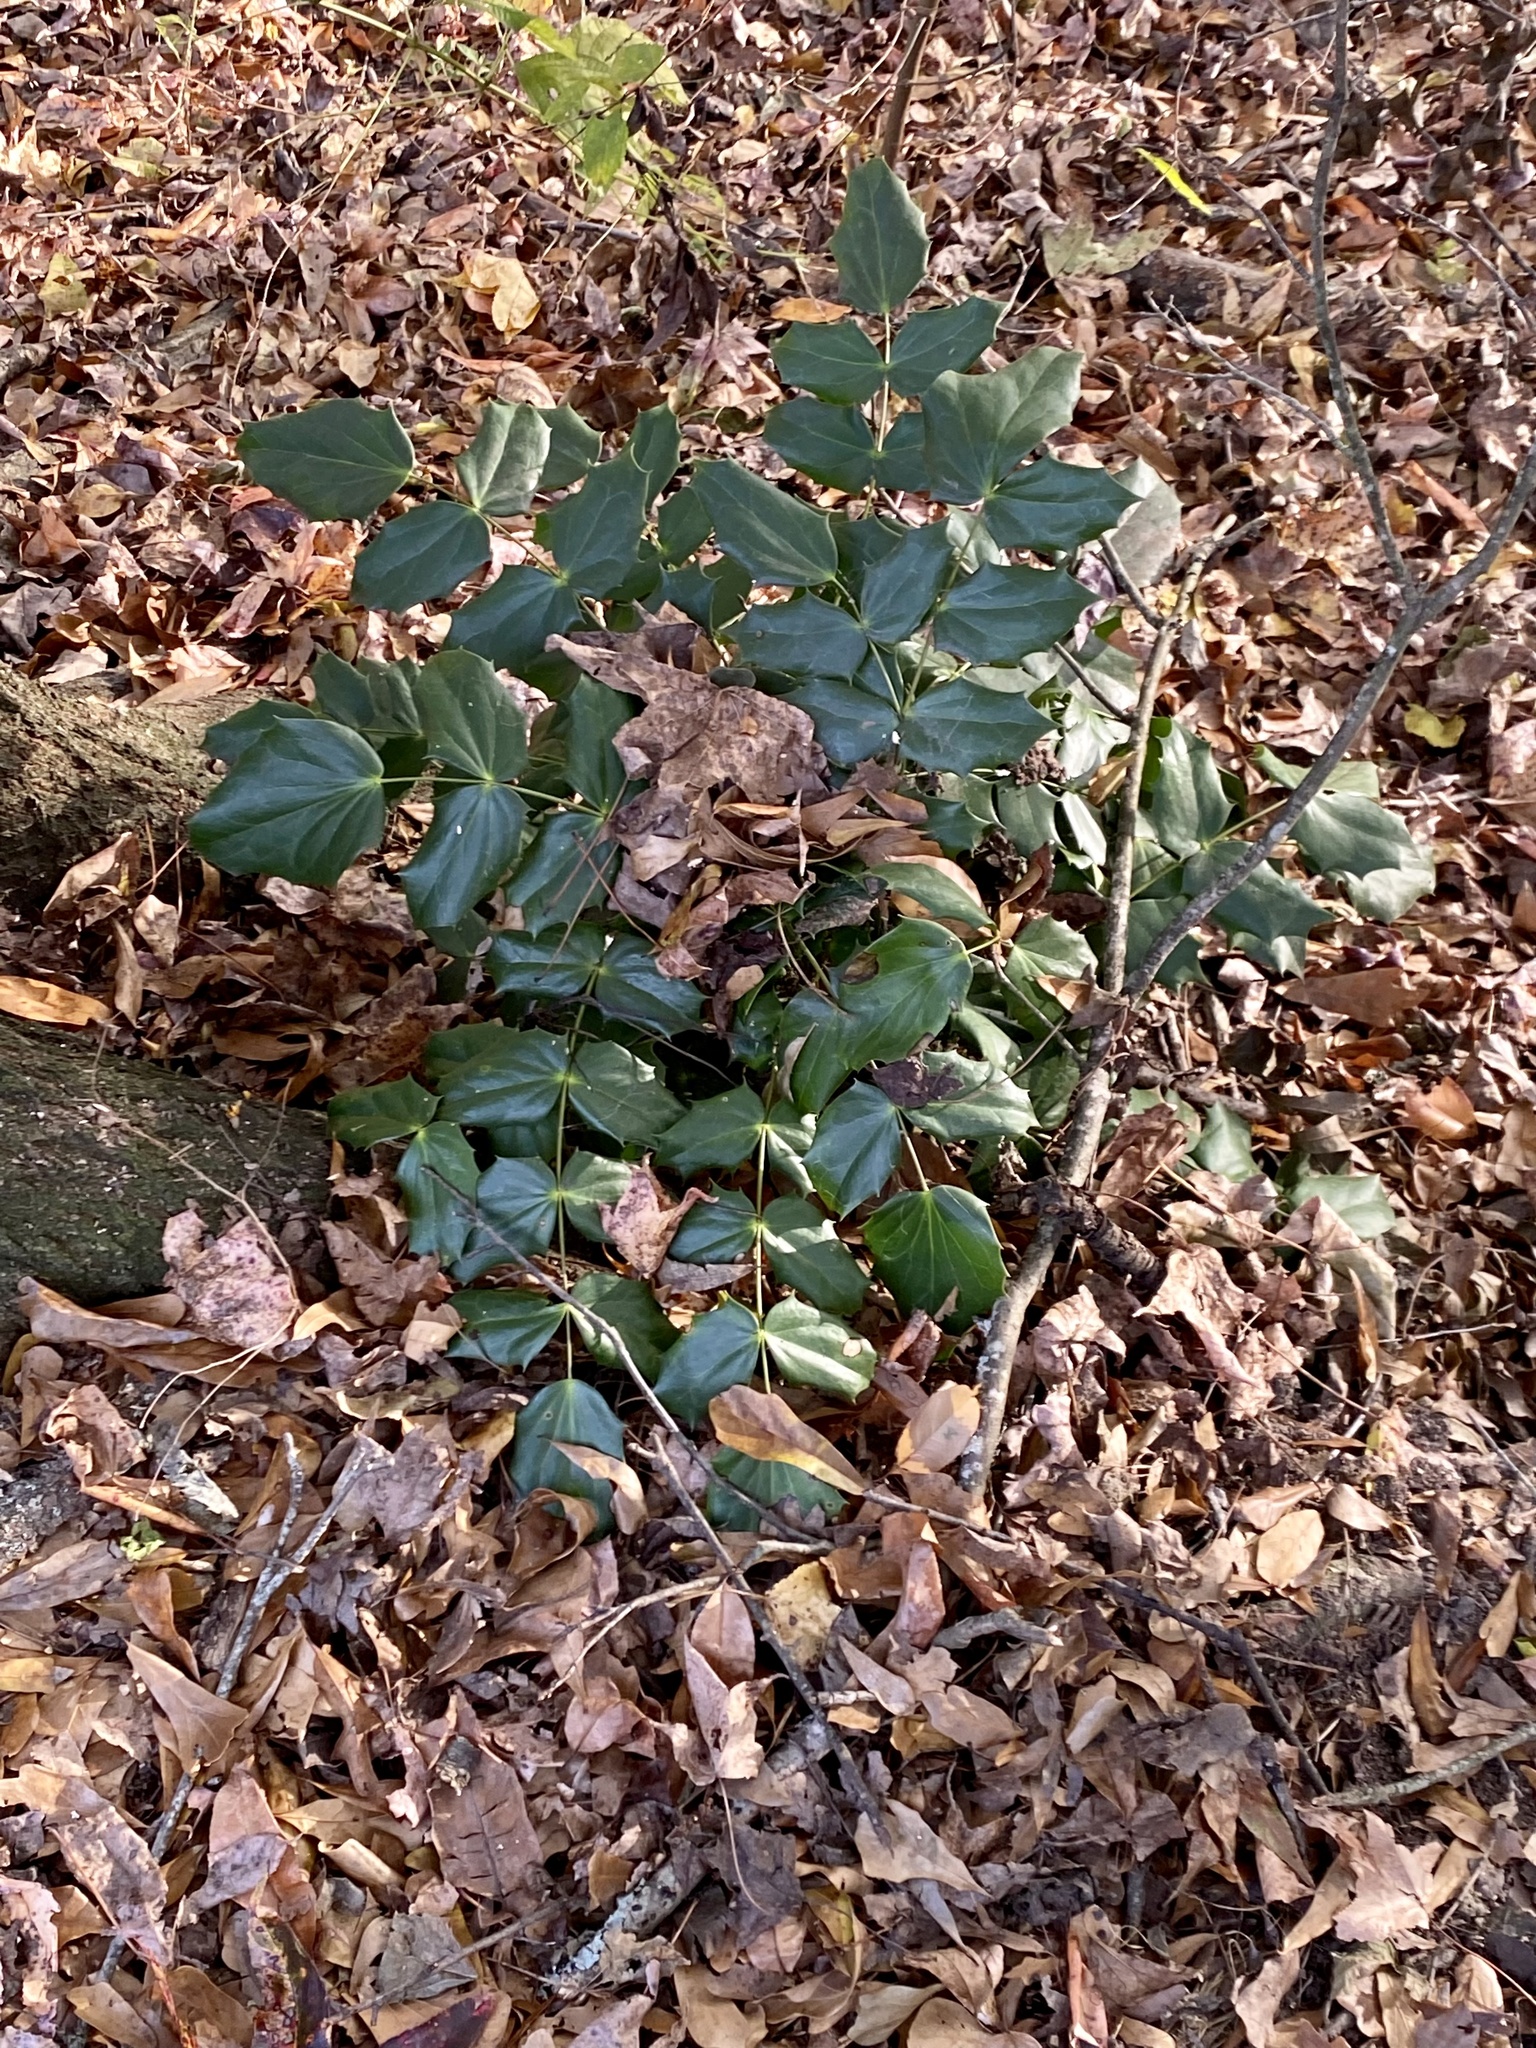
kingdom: Plantae
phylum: Tracheophyta
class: Magnoliopsida
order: Ranunculales
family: Berberidaceae
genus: Mahonia
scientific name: Mahonia bealei
